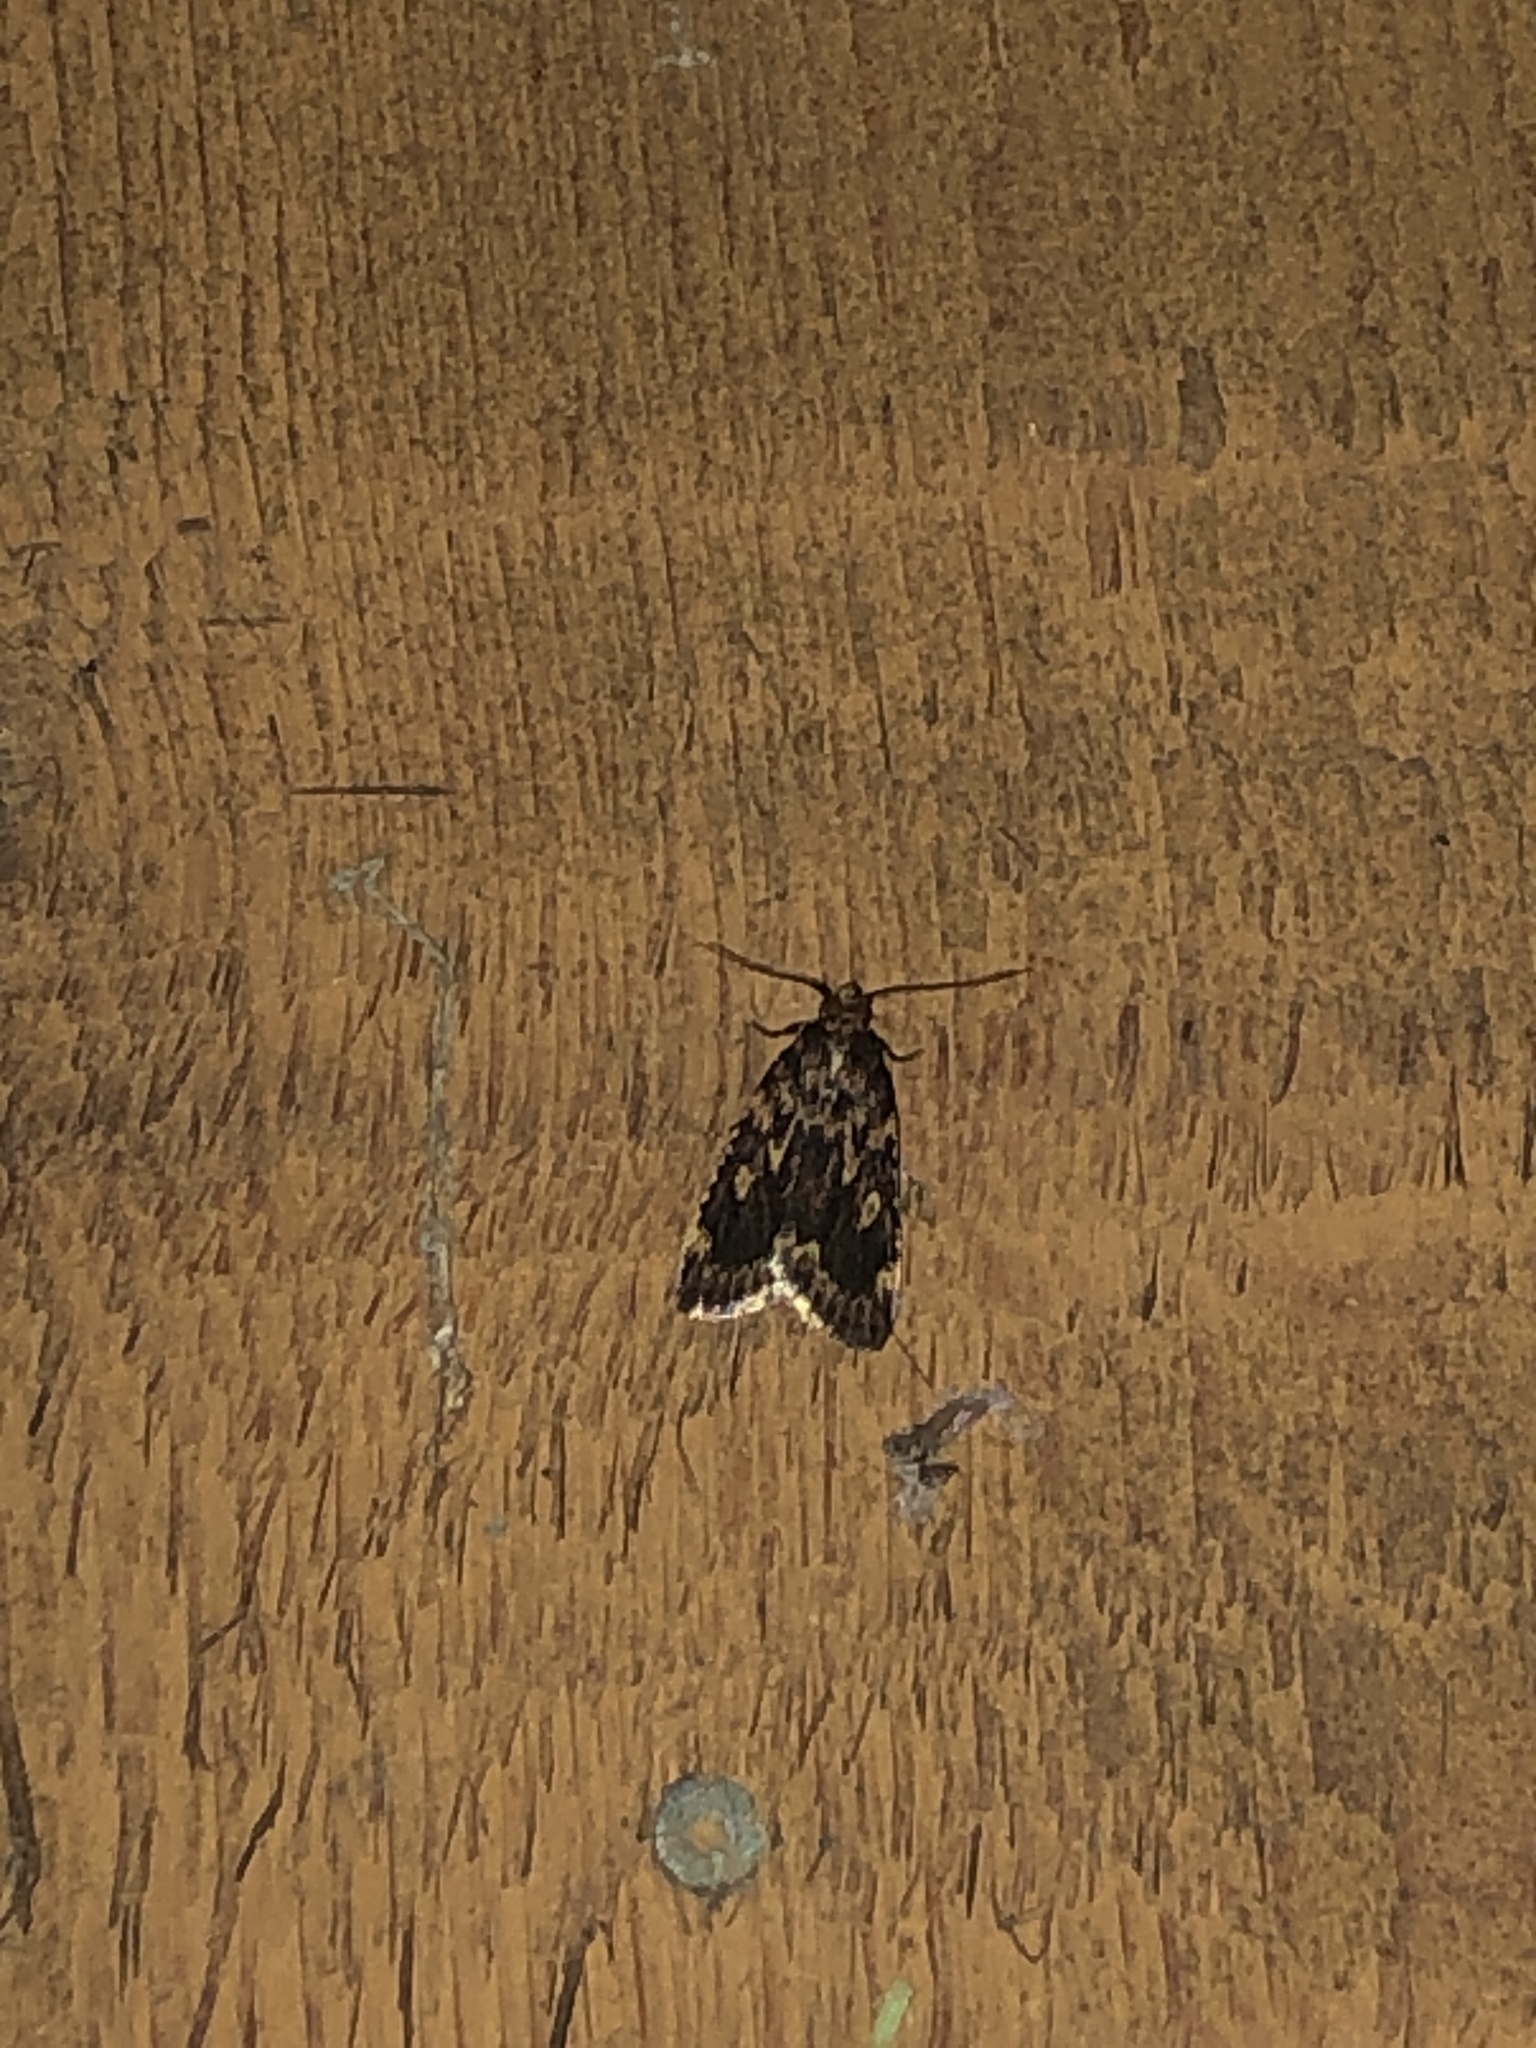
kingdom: Animalia
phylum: Arthropoda
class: Insecta
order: Lepidoptera
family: Pyralidae
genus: Aglossa
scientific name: Aglossa cuprina
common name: Grease moth
